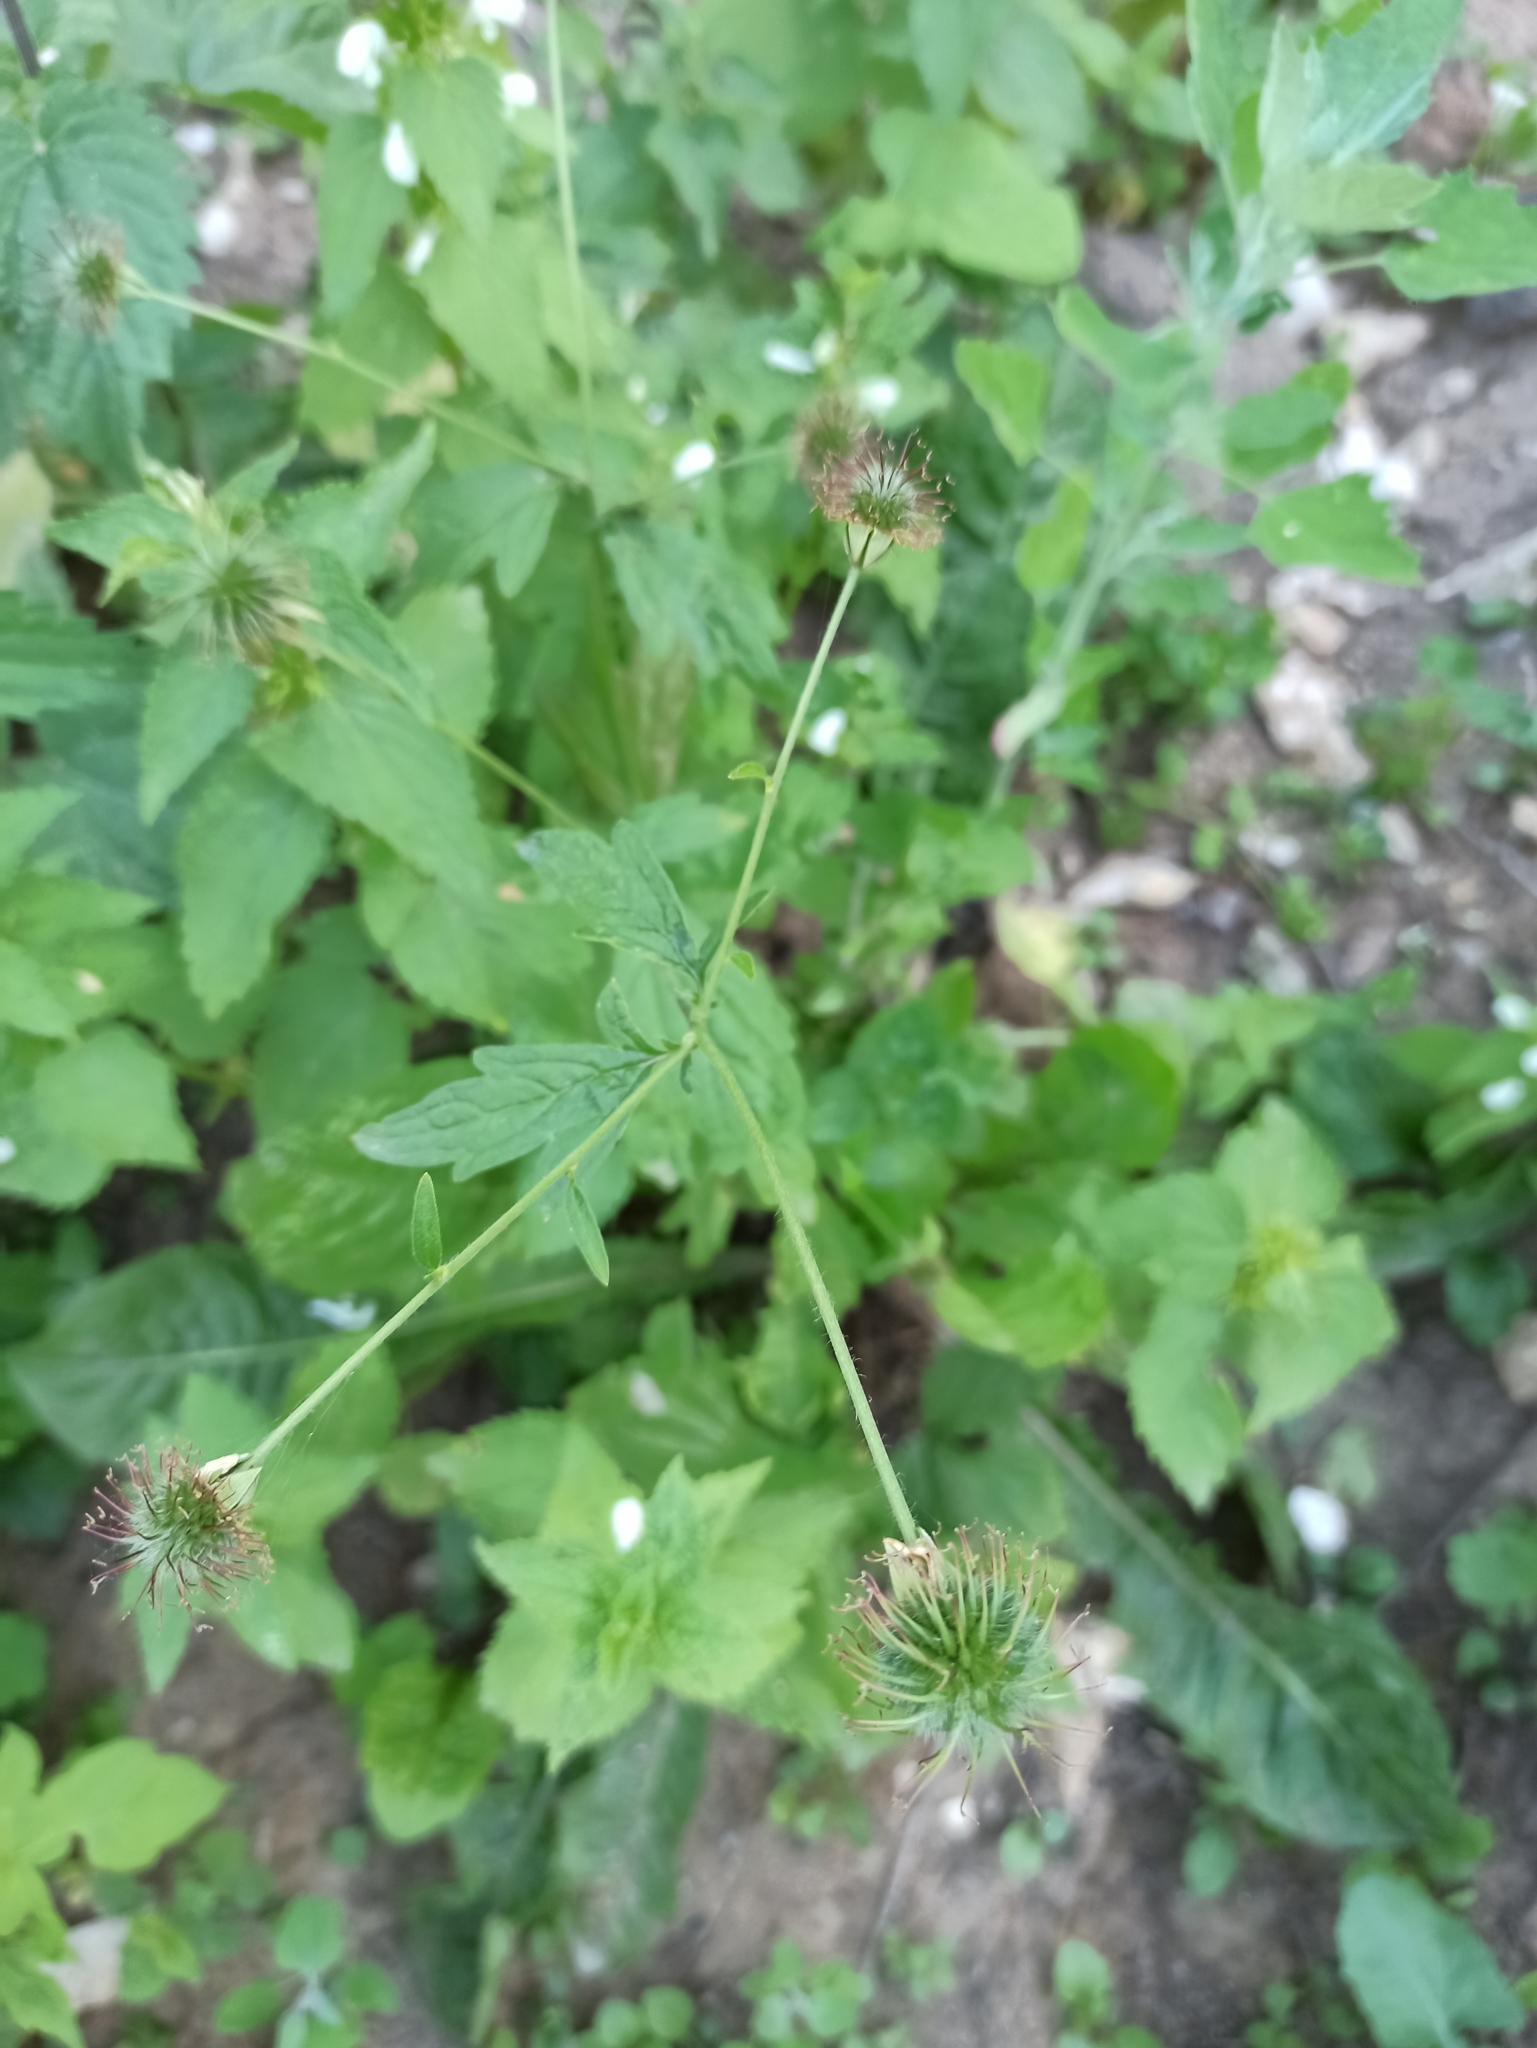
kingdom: Plantae
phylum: Tracheophyta
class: Magnoliopsida
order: Rosales
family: Rosaceae
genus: Geum
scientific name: Geum urbanum
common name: Wood avens
